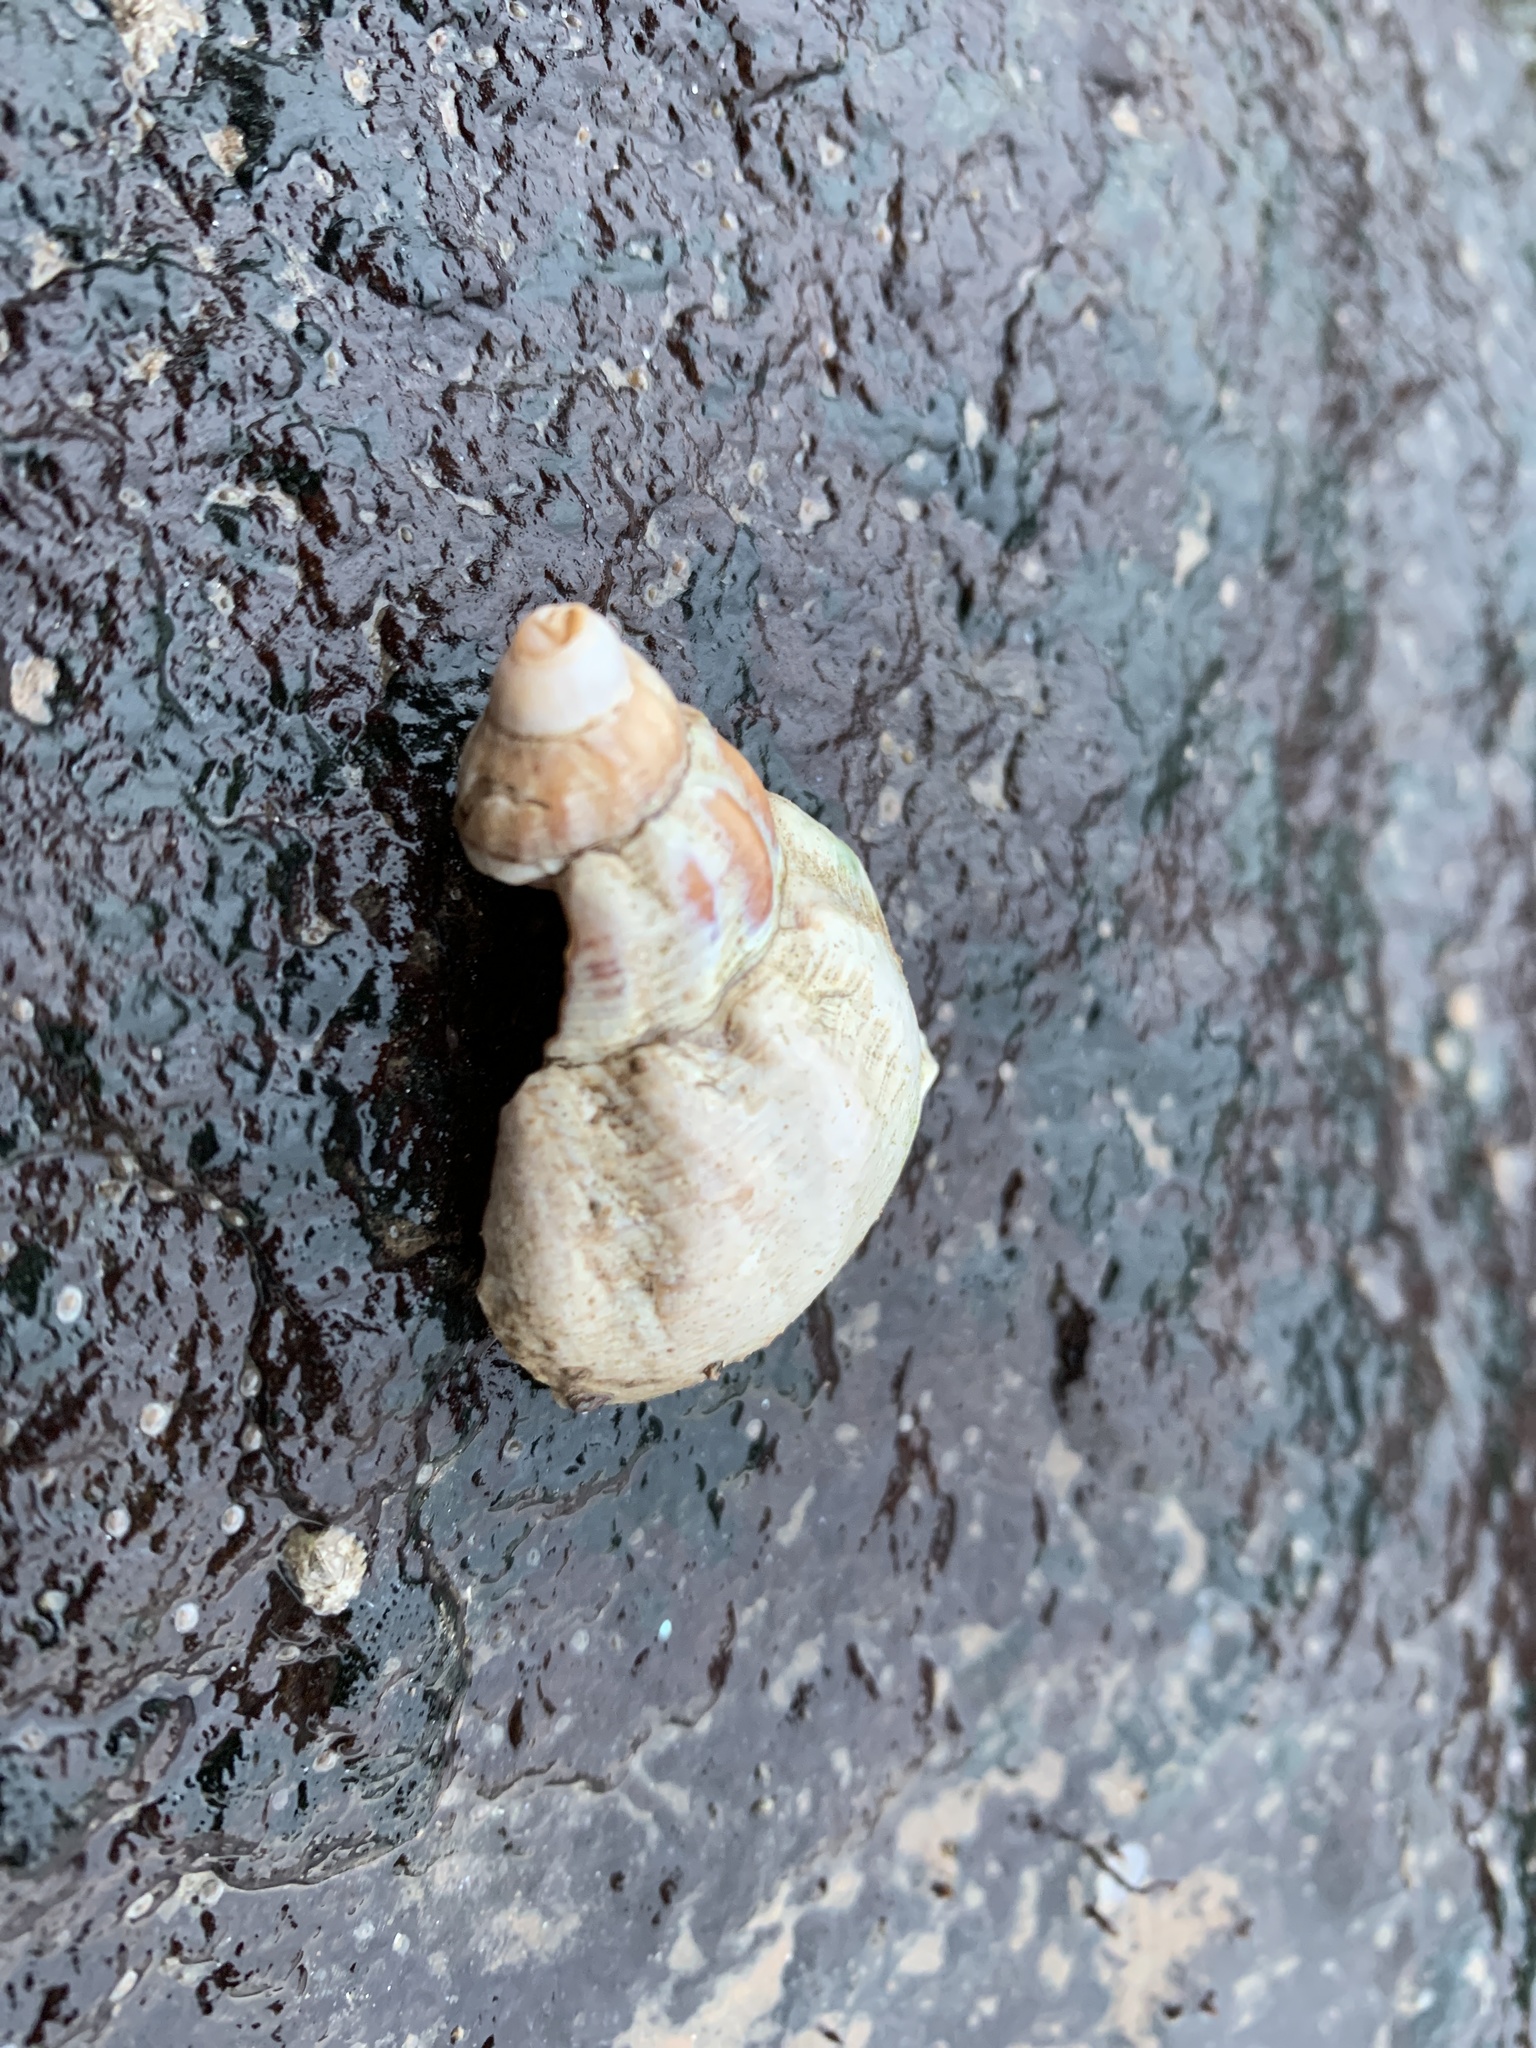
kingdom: Animalia
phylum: Mollusca
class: Gastropoda
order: Neogastropoda
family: Buccinidae
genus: Buccinum
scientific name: Buccinum undatum
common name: Common whelk
